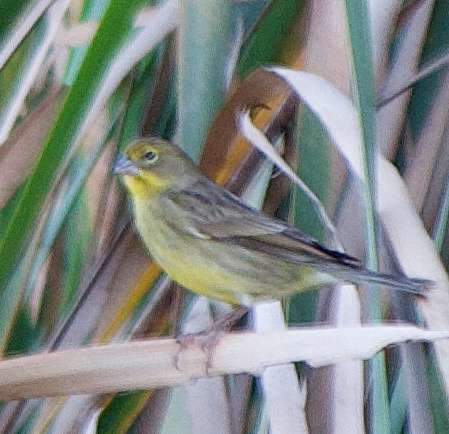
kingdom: Animalia
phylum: Chordata
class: Aves
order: Passeriformes
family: Thraupidae
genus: Sicalis
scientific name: Sicalis luteola
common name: Grassland yellow-finch
